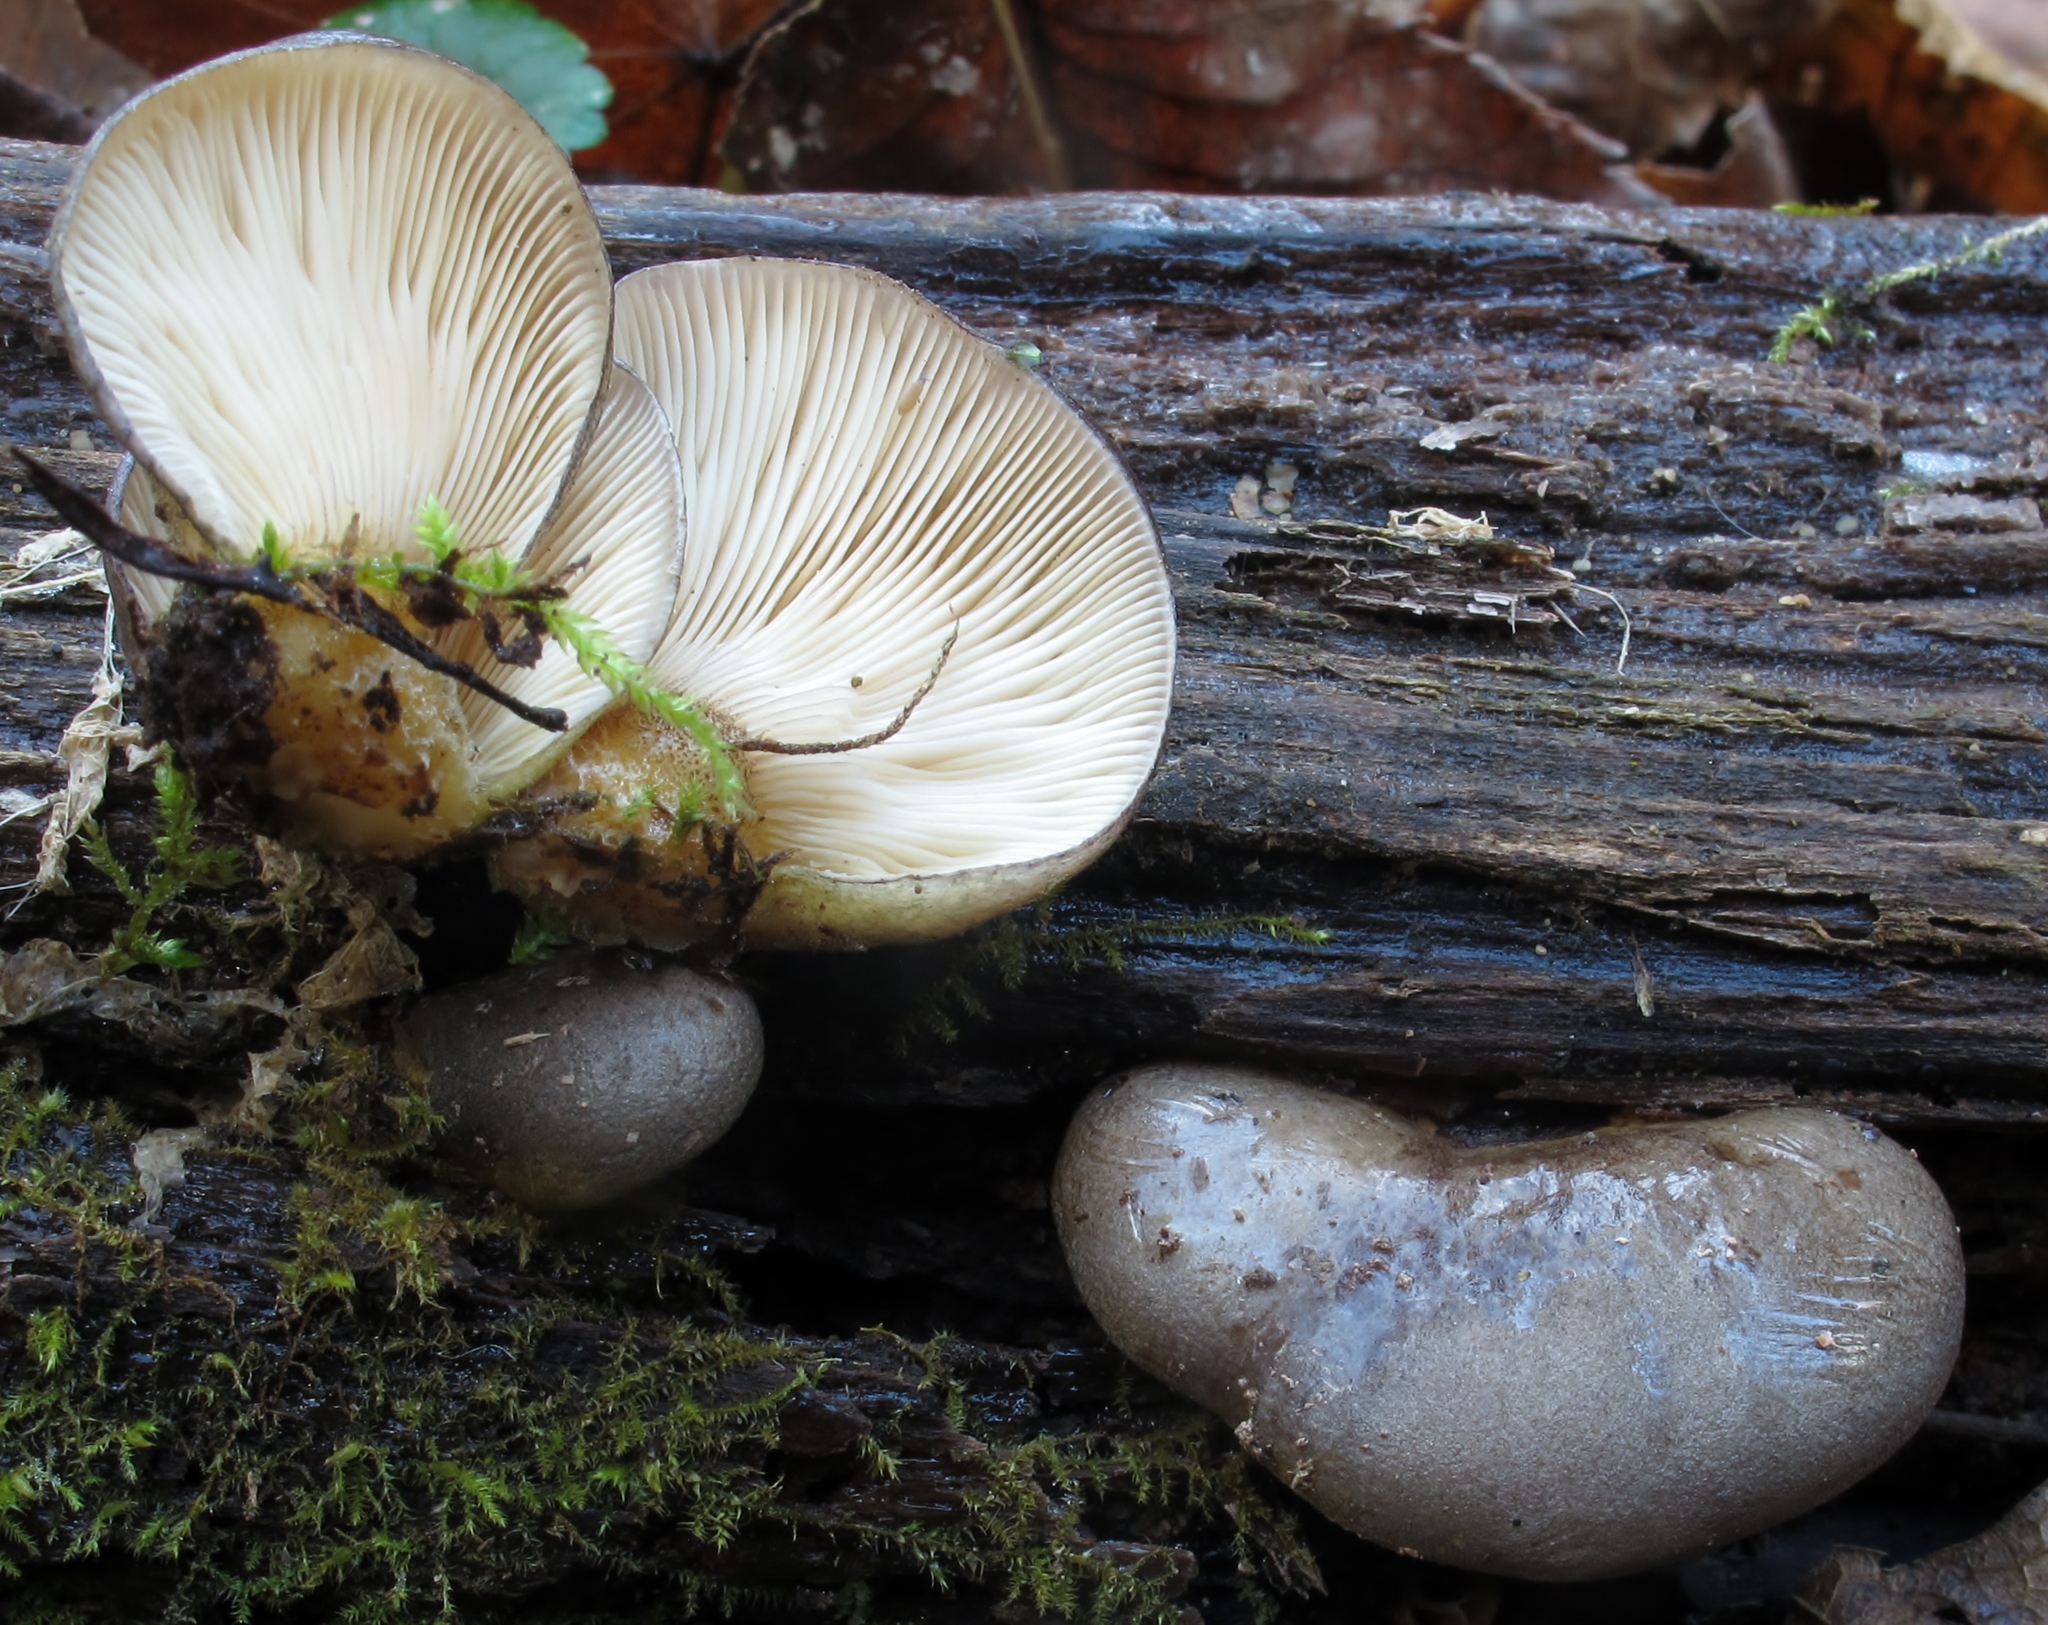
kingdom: Fungi
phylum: Basidiomycota
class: Agaricomycetes
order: Agaricales
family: Sarcomyxaceae
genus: Sarcomyxa
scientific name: Sarcomyxa serotina
